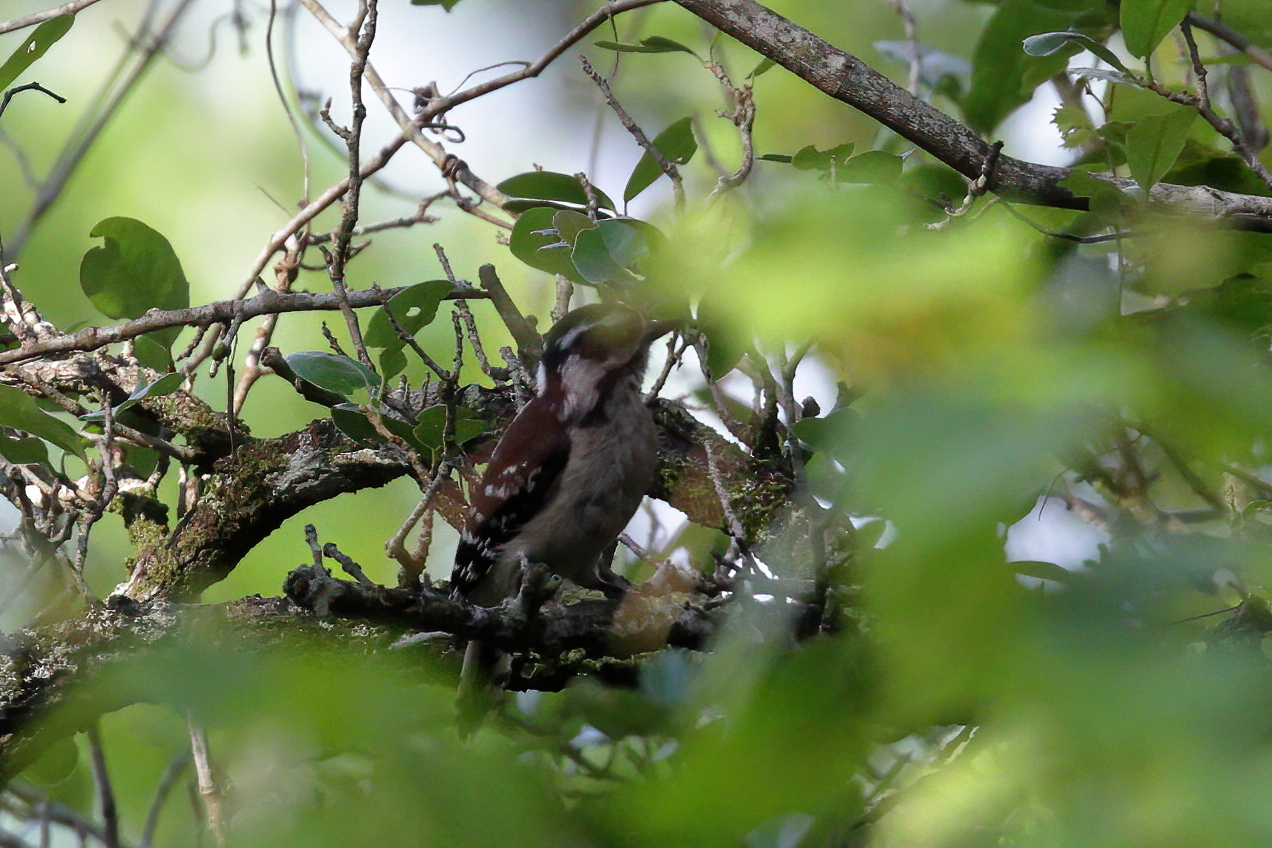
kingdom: Animalia
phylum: Chordata
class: Aves
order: Piciformes
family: Picidae
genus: Dryobates
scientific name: Dryobates pubescens
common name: Downy woodpecker
